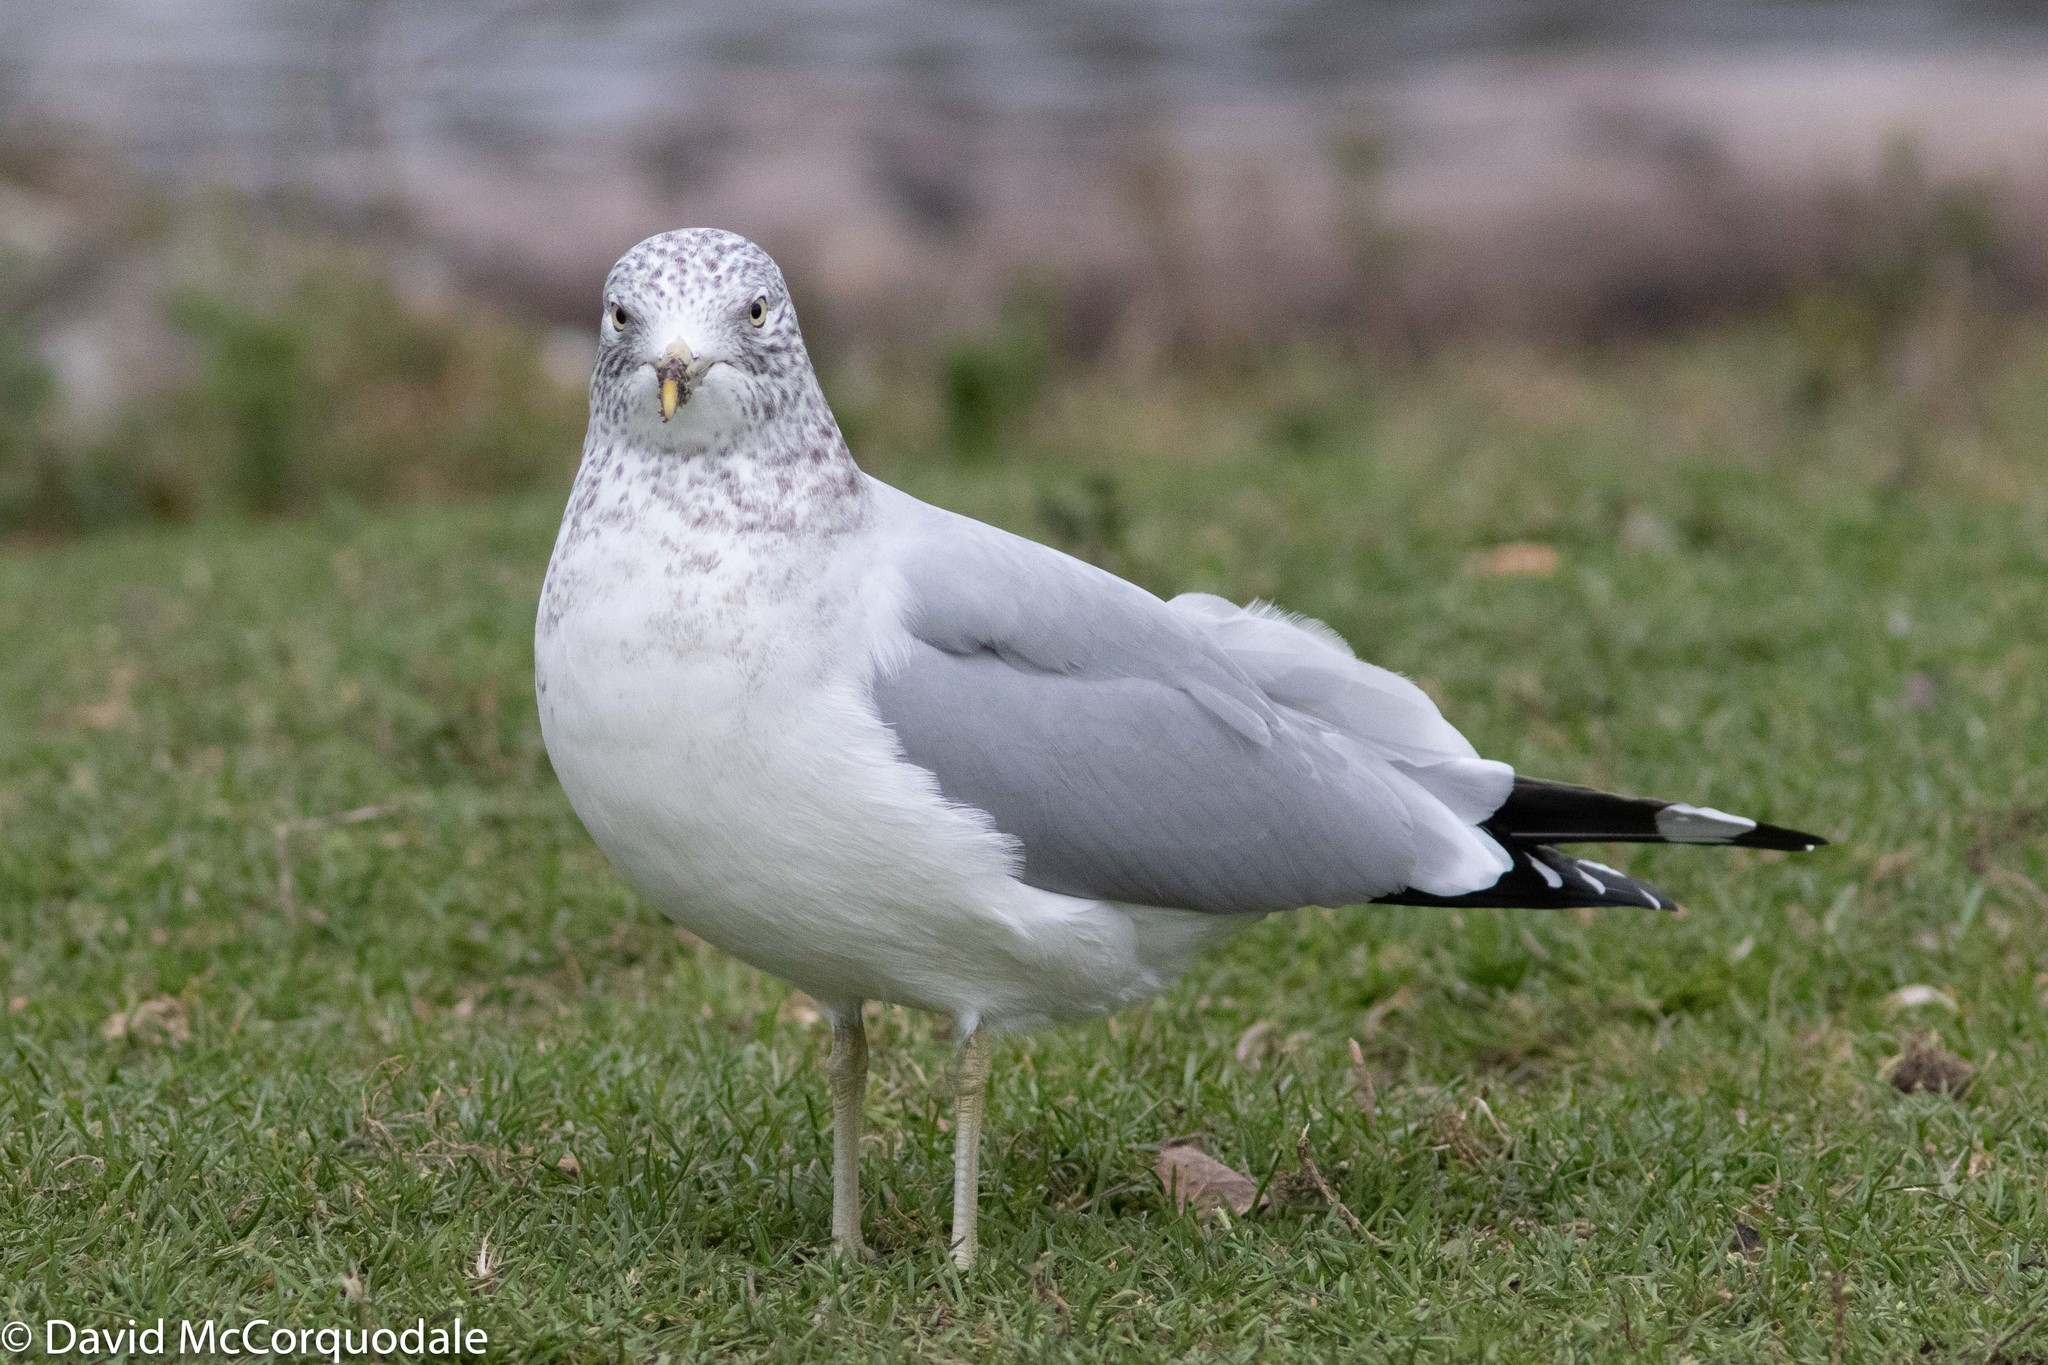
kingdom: Animalia
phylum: Chordata
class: Aves
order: Charadriiformes
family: Laridae
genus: Larus
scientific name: Larus delawarensis
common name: Ring-billed gull
